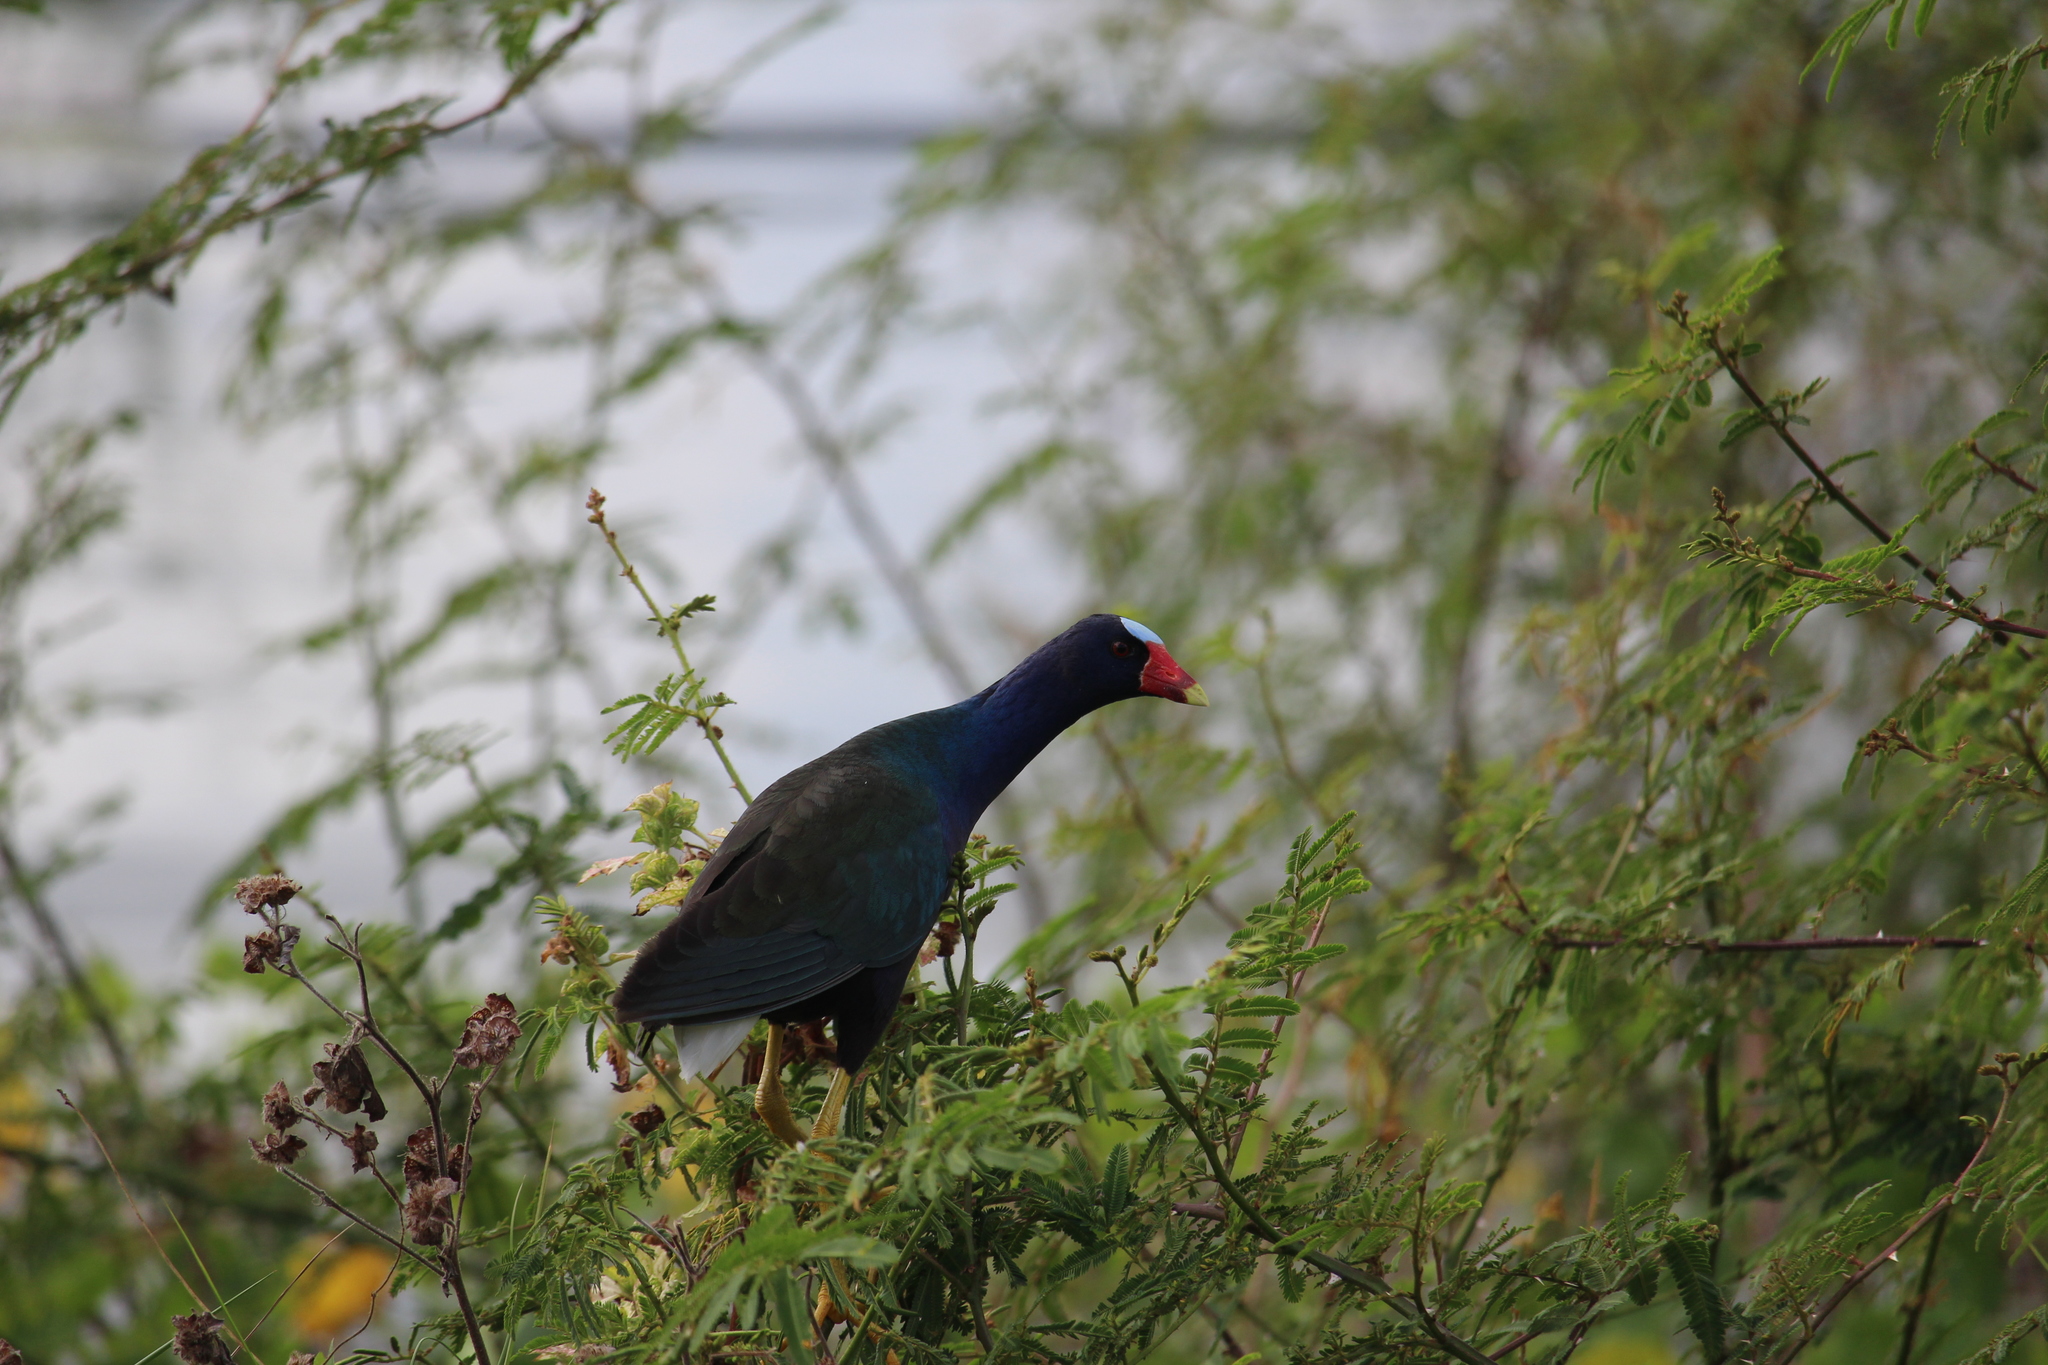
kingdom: Animalia
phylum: Chordata
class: Aves
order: Gruiformes
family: Rallidae
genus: Porphyrio
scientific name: Porphyrio martinica
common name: Purple gallinule
